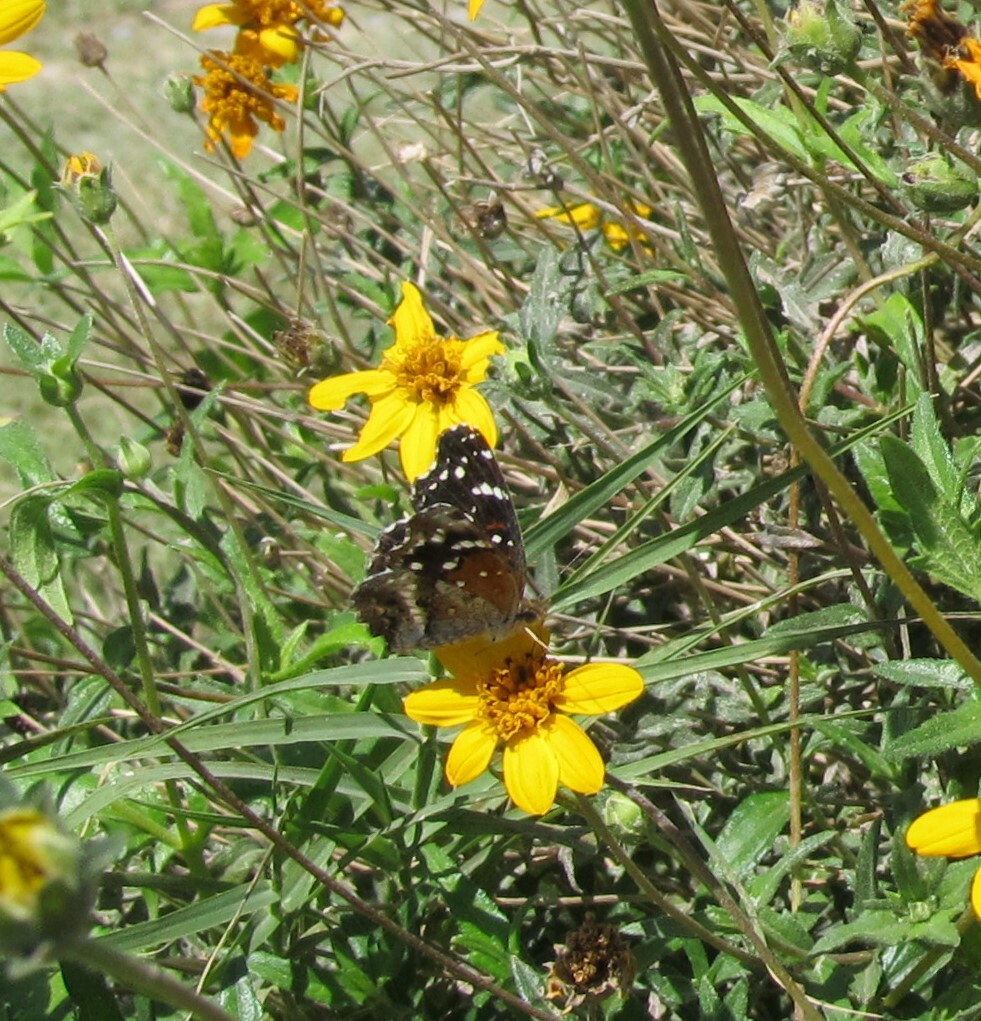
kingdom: Animalia
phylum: Arthropoda
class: Insecta
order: Lepidoptera
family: Nymphalidae
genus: Anthanassa
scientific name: Anthanassa texana
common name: Texan crescent
